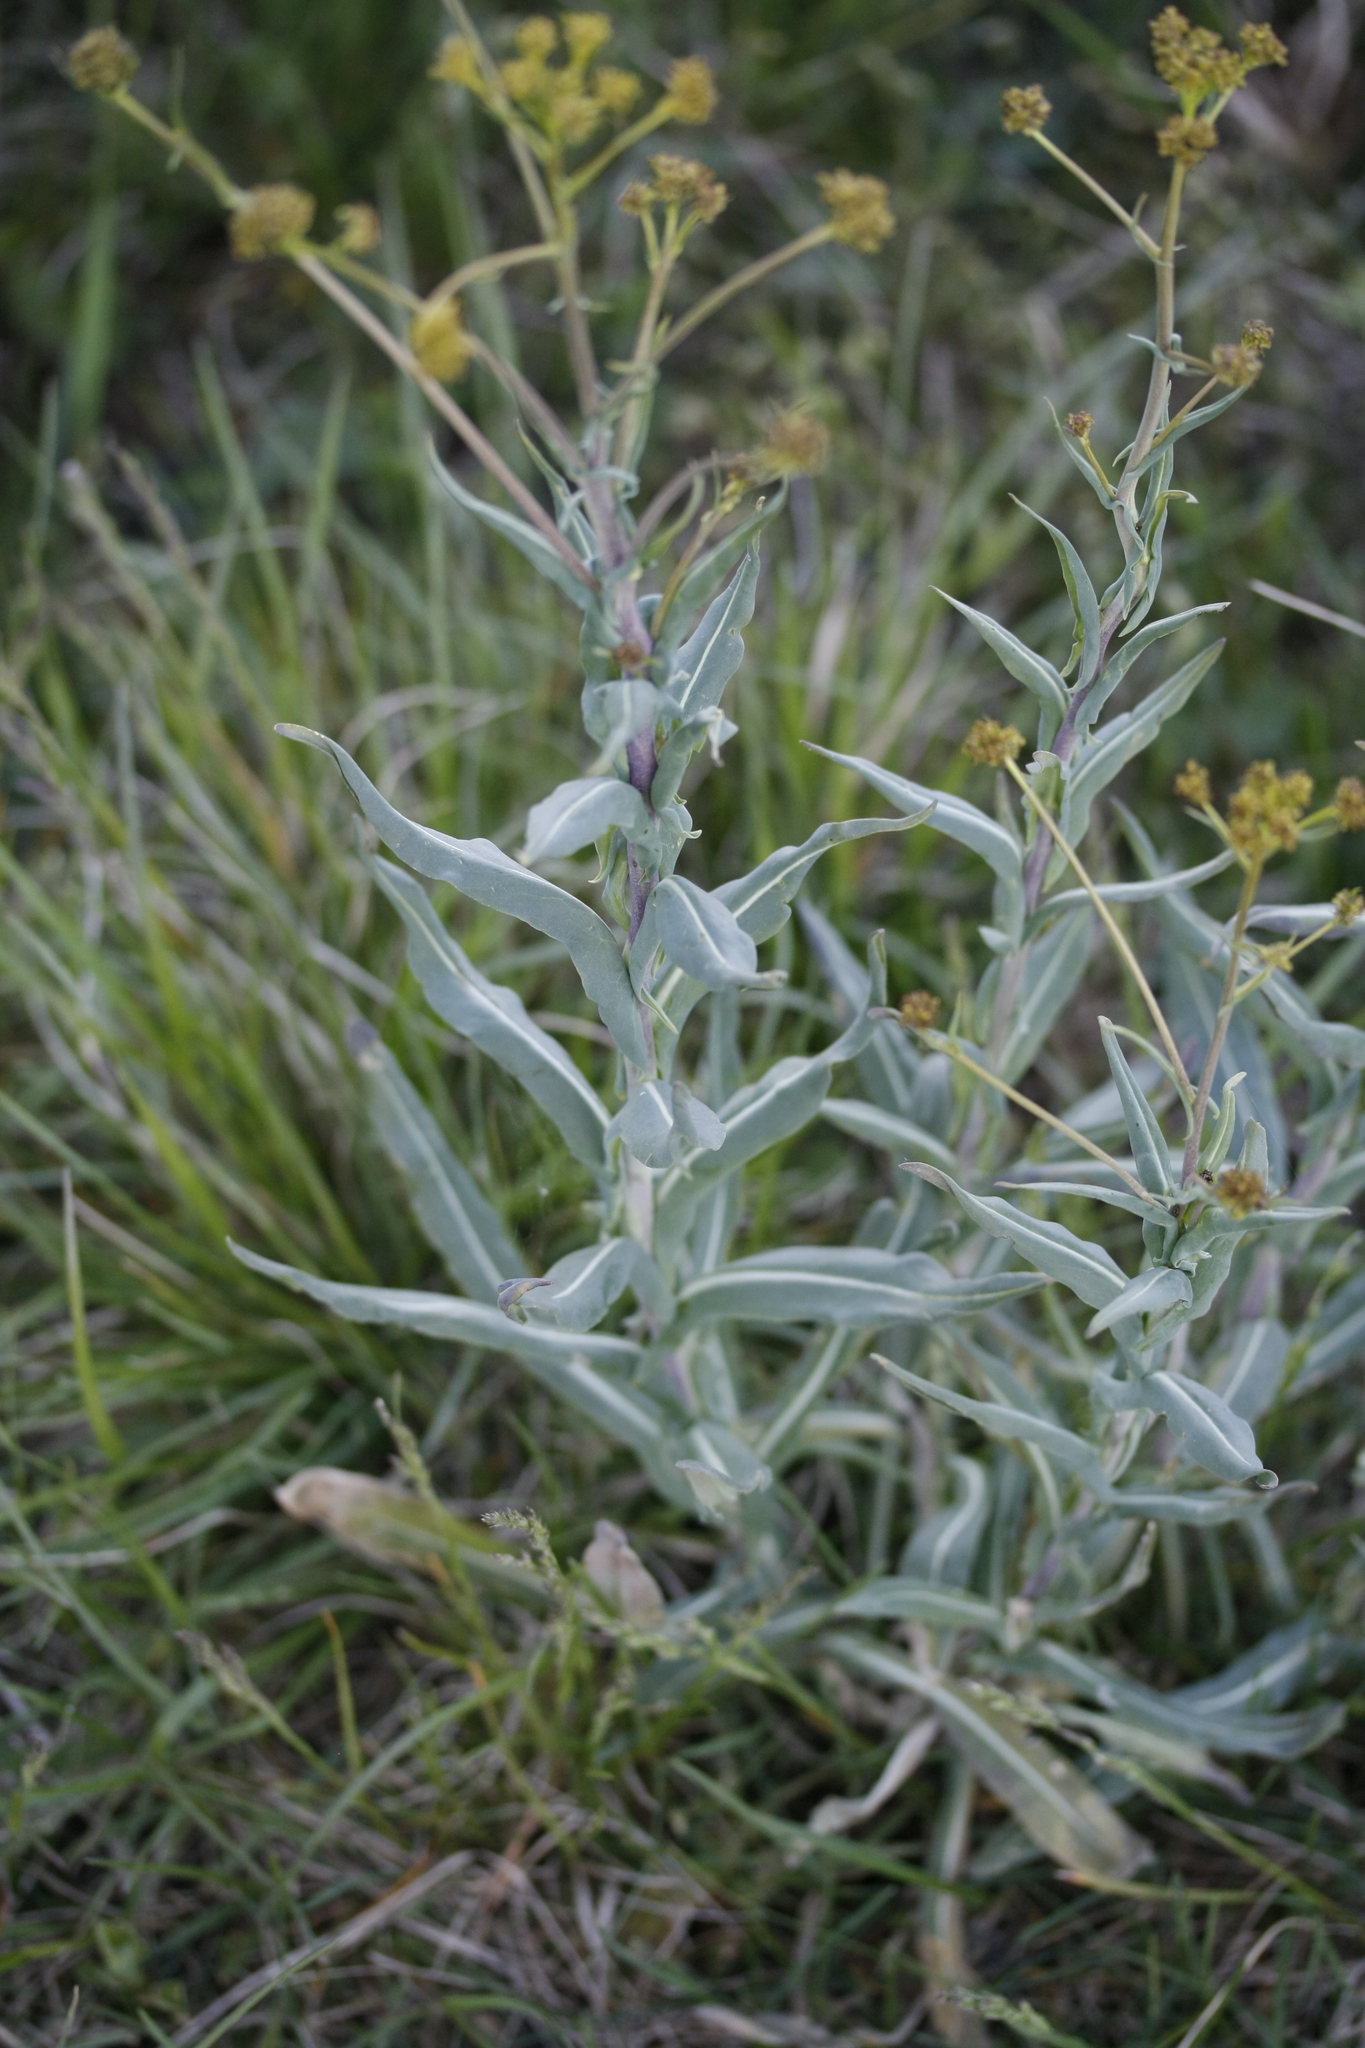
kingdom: Plantae
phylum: Tracheophyta
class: Magnoliopsida
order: Brassicales
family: Brassicaceae
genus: Isatis
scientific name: Isatis tinctoria
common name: Woad
